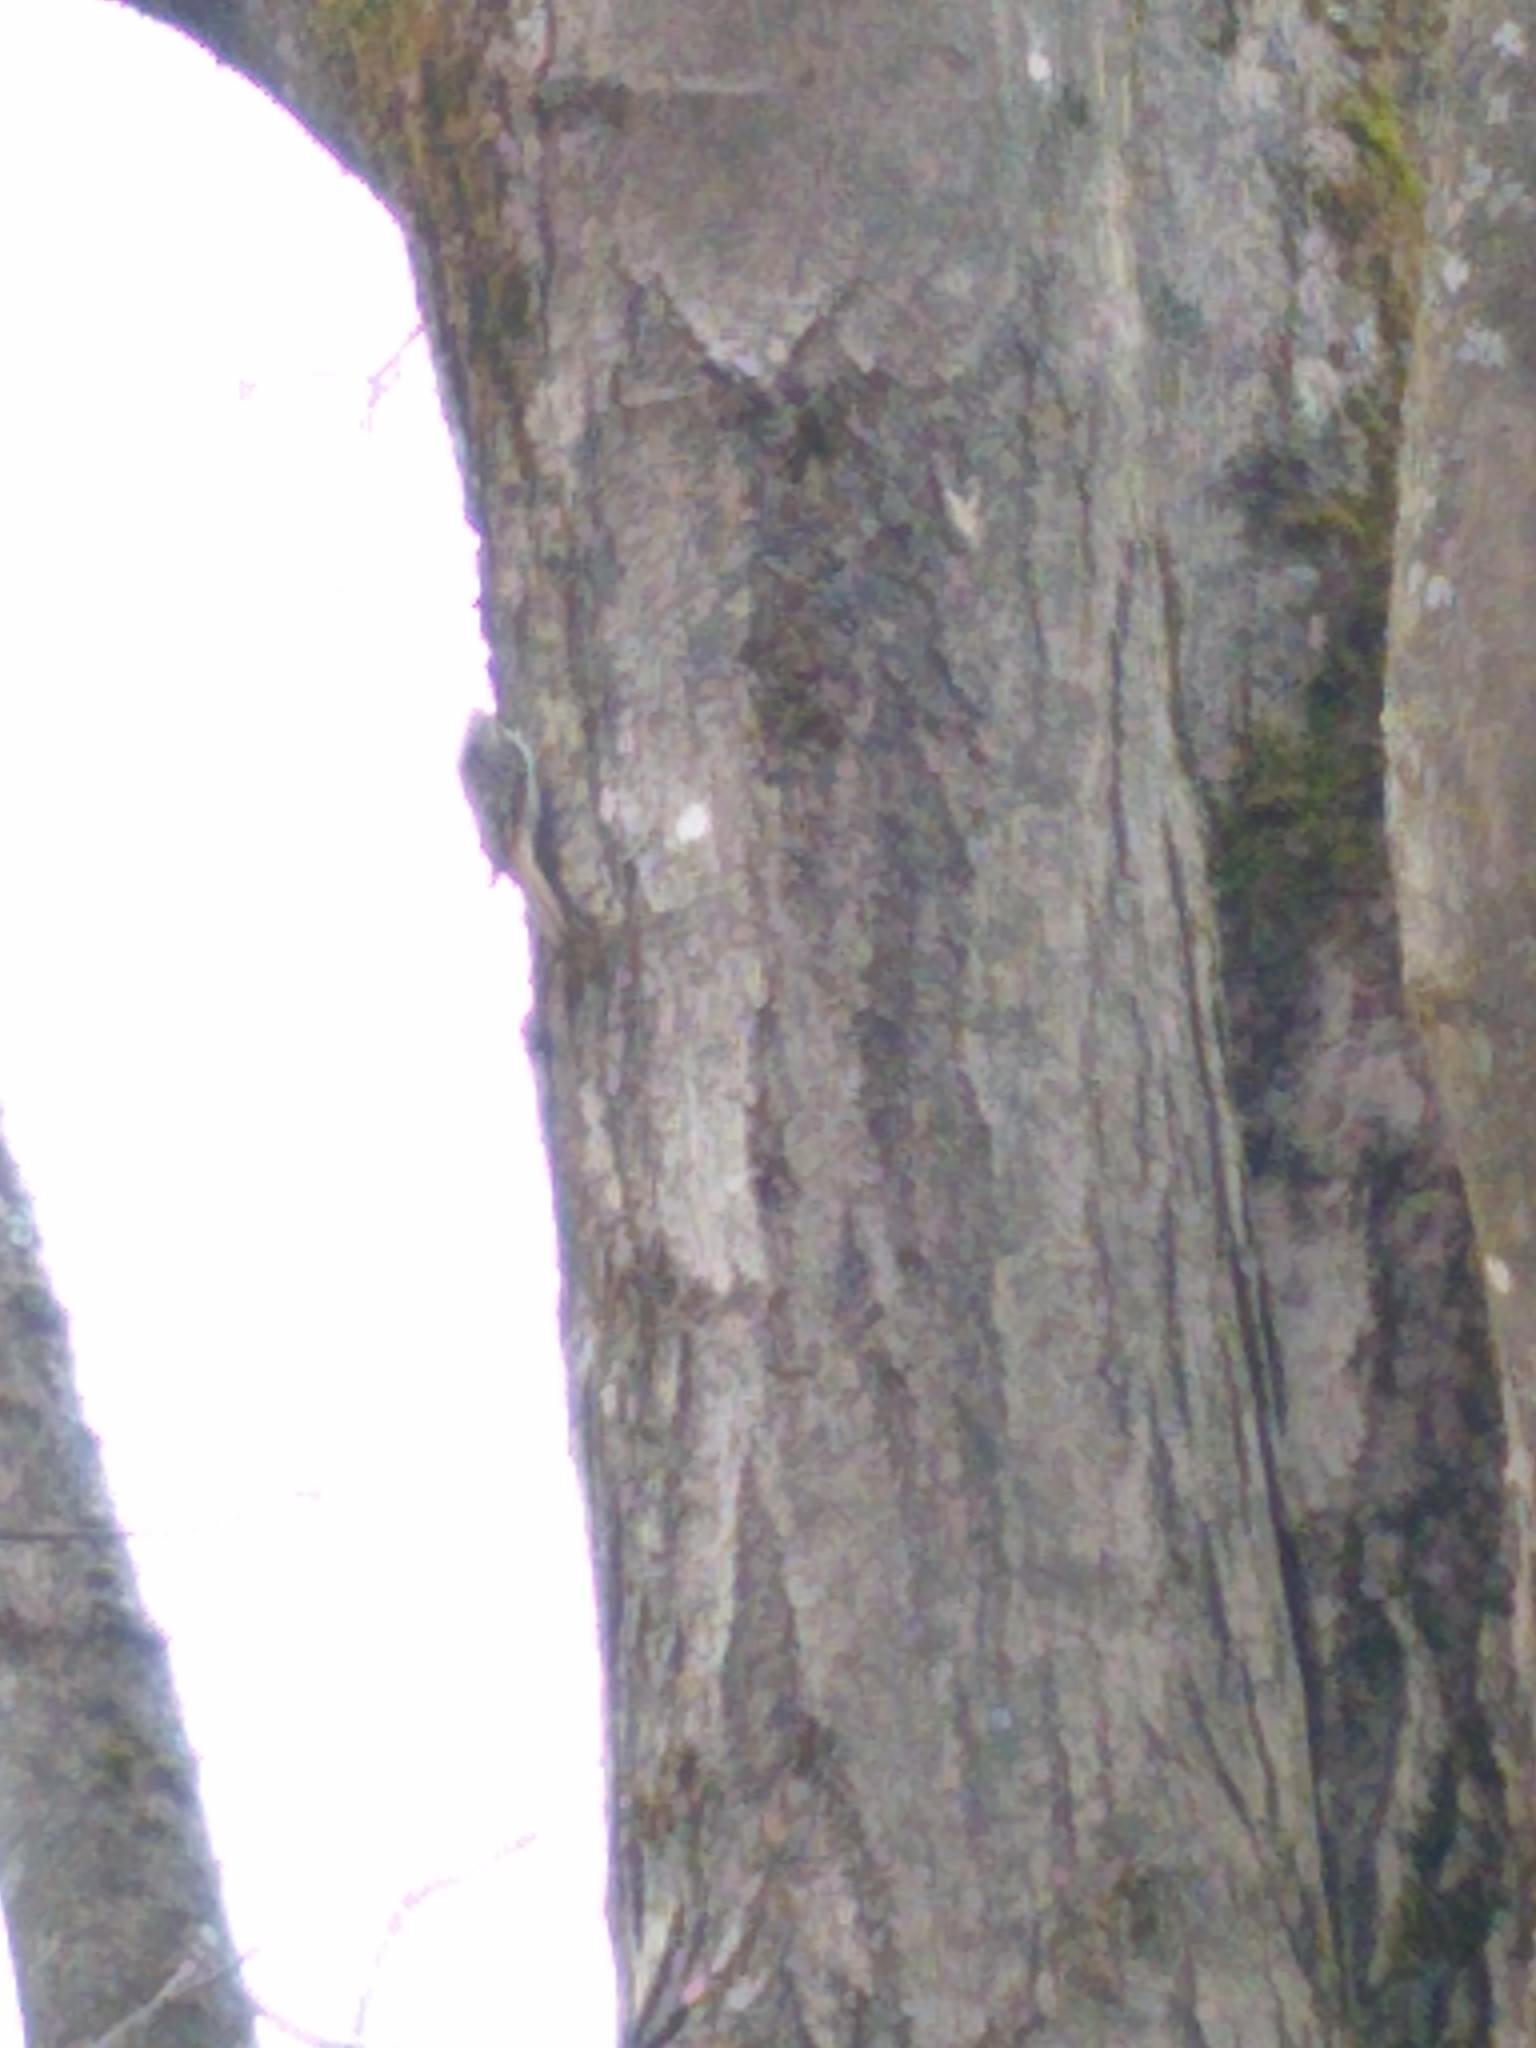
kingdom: Animalia
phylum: Chordata
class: Aves
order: Passeriformes
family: Certhiidae
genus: Certhia
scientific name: Certhia americana
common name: Brown creeper
